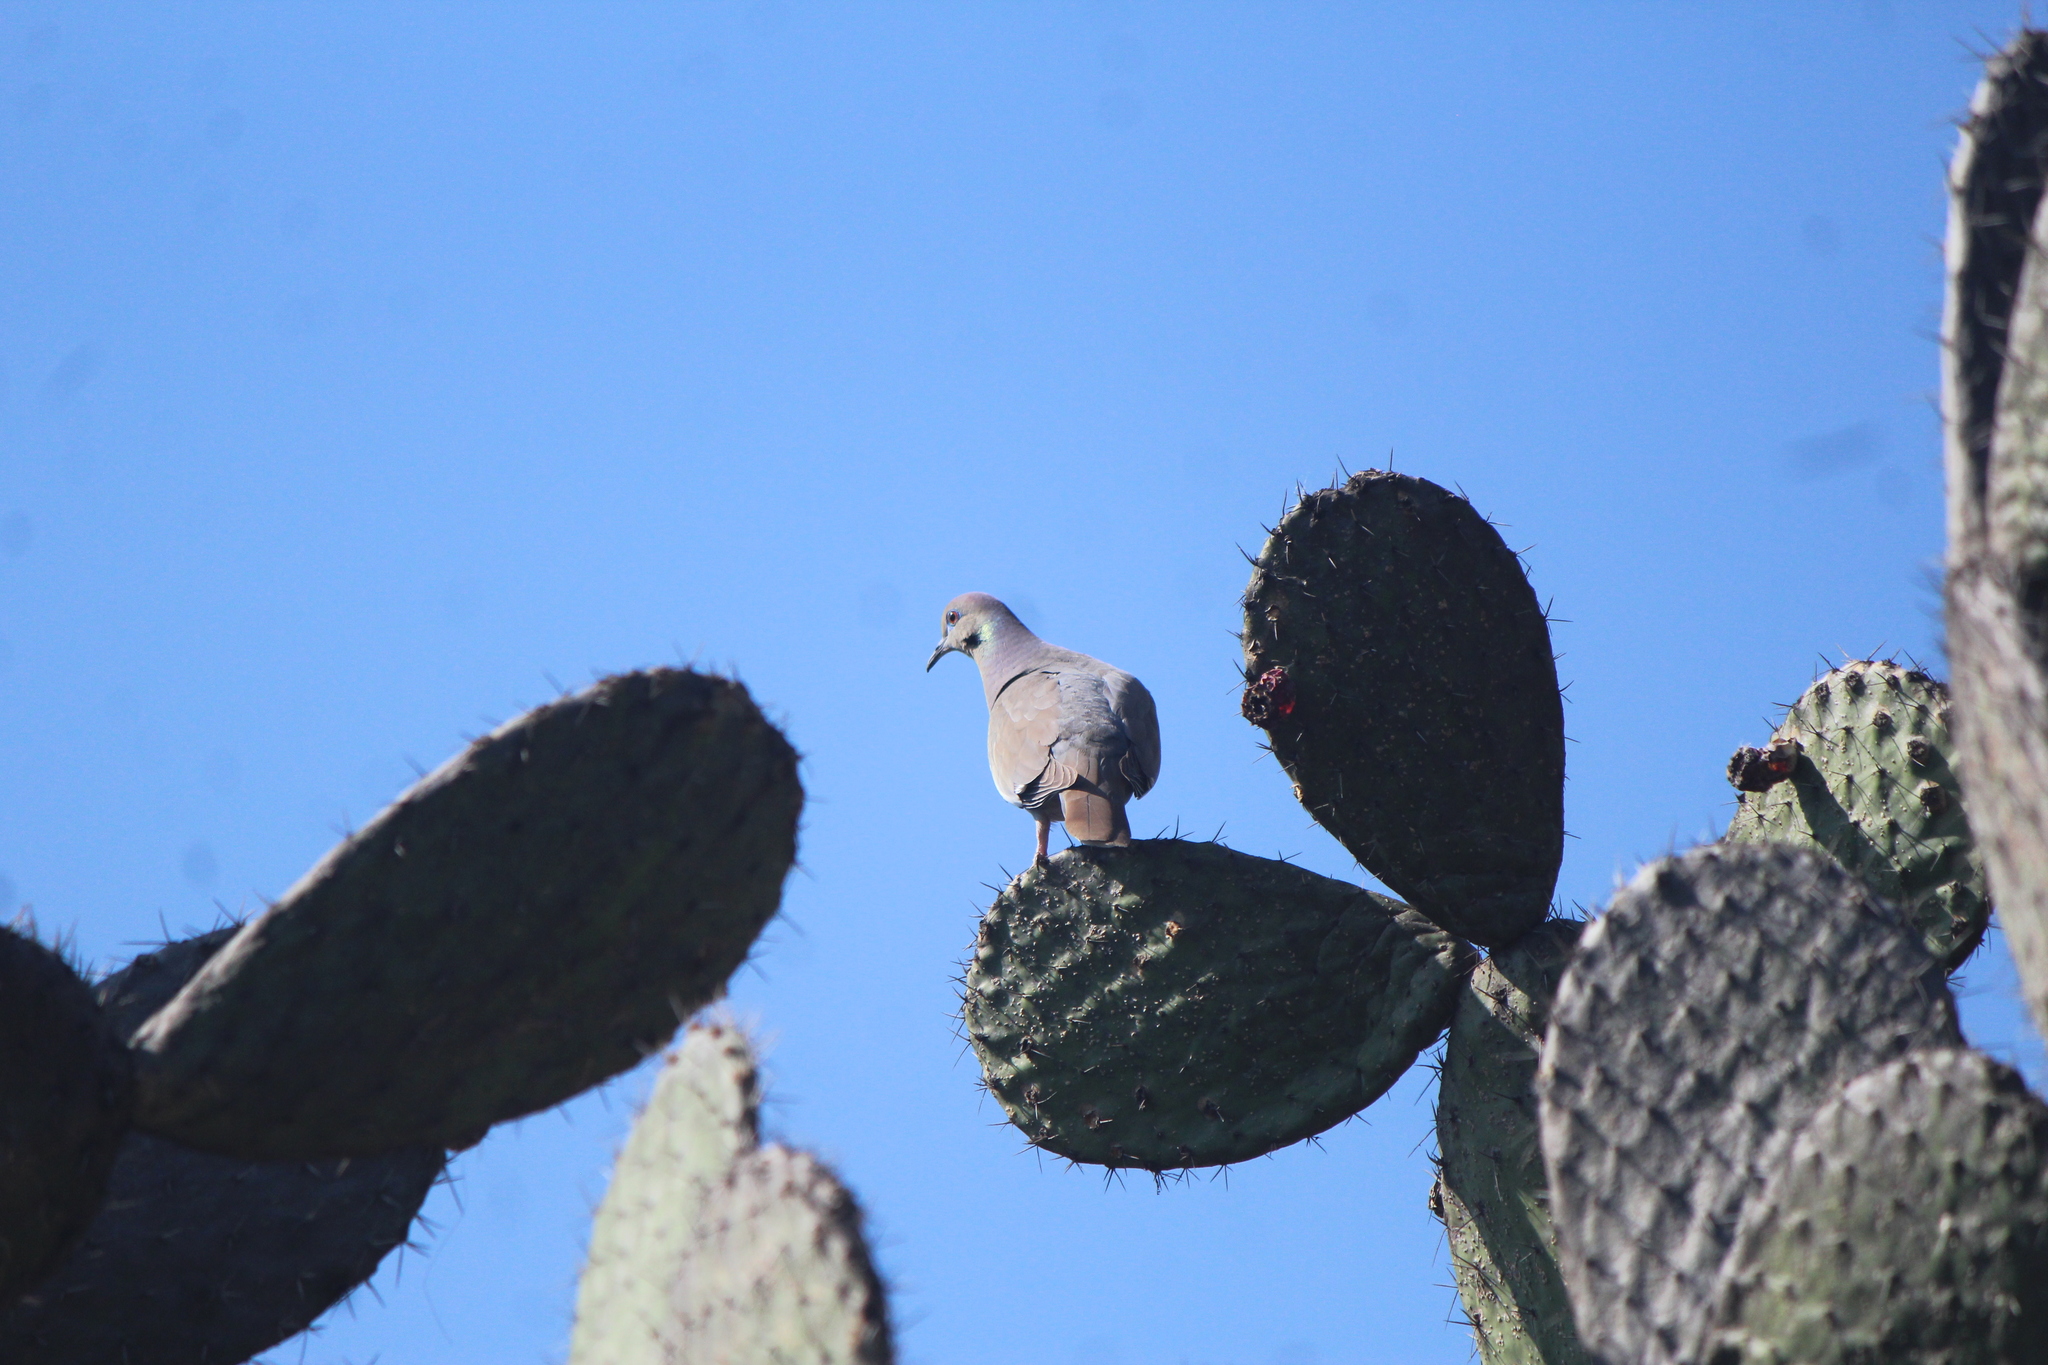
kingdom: Animalia
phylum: Chordata
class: Aves
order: Columbiformes
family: Columbidae
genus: Zenaida
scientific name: Zenaida asiatica
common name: White-winged dove
